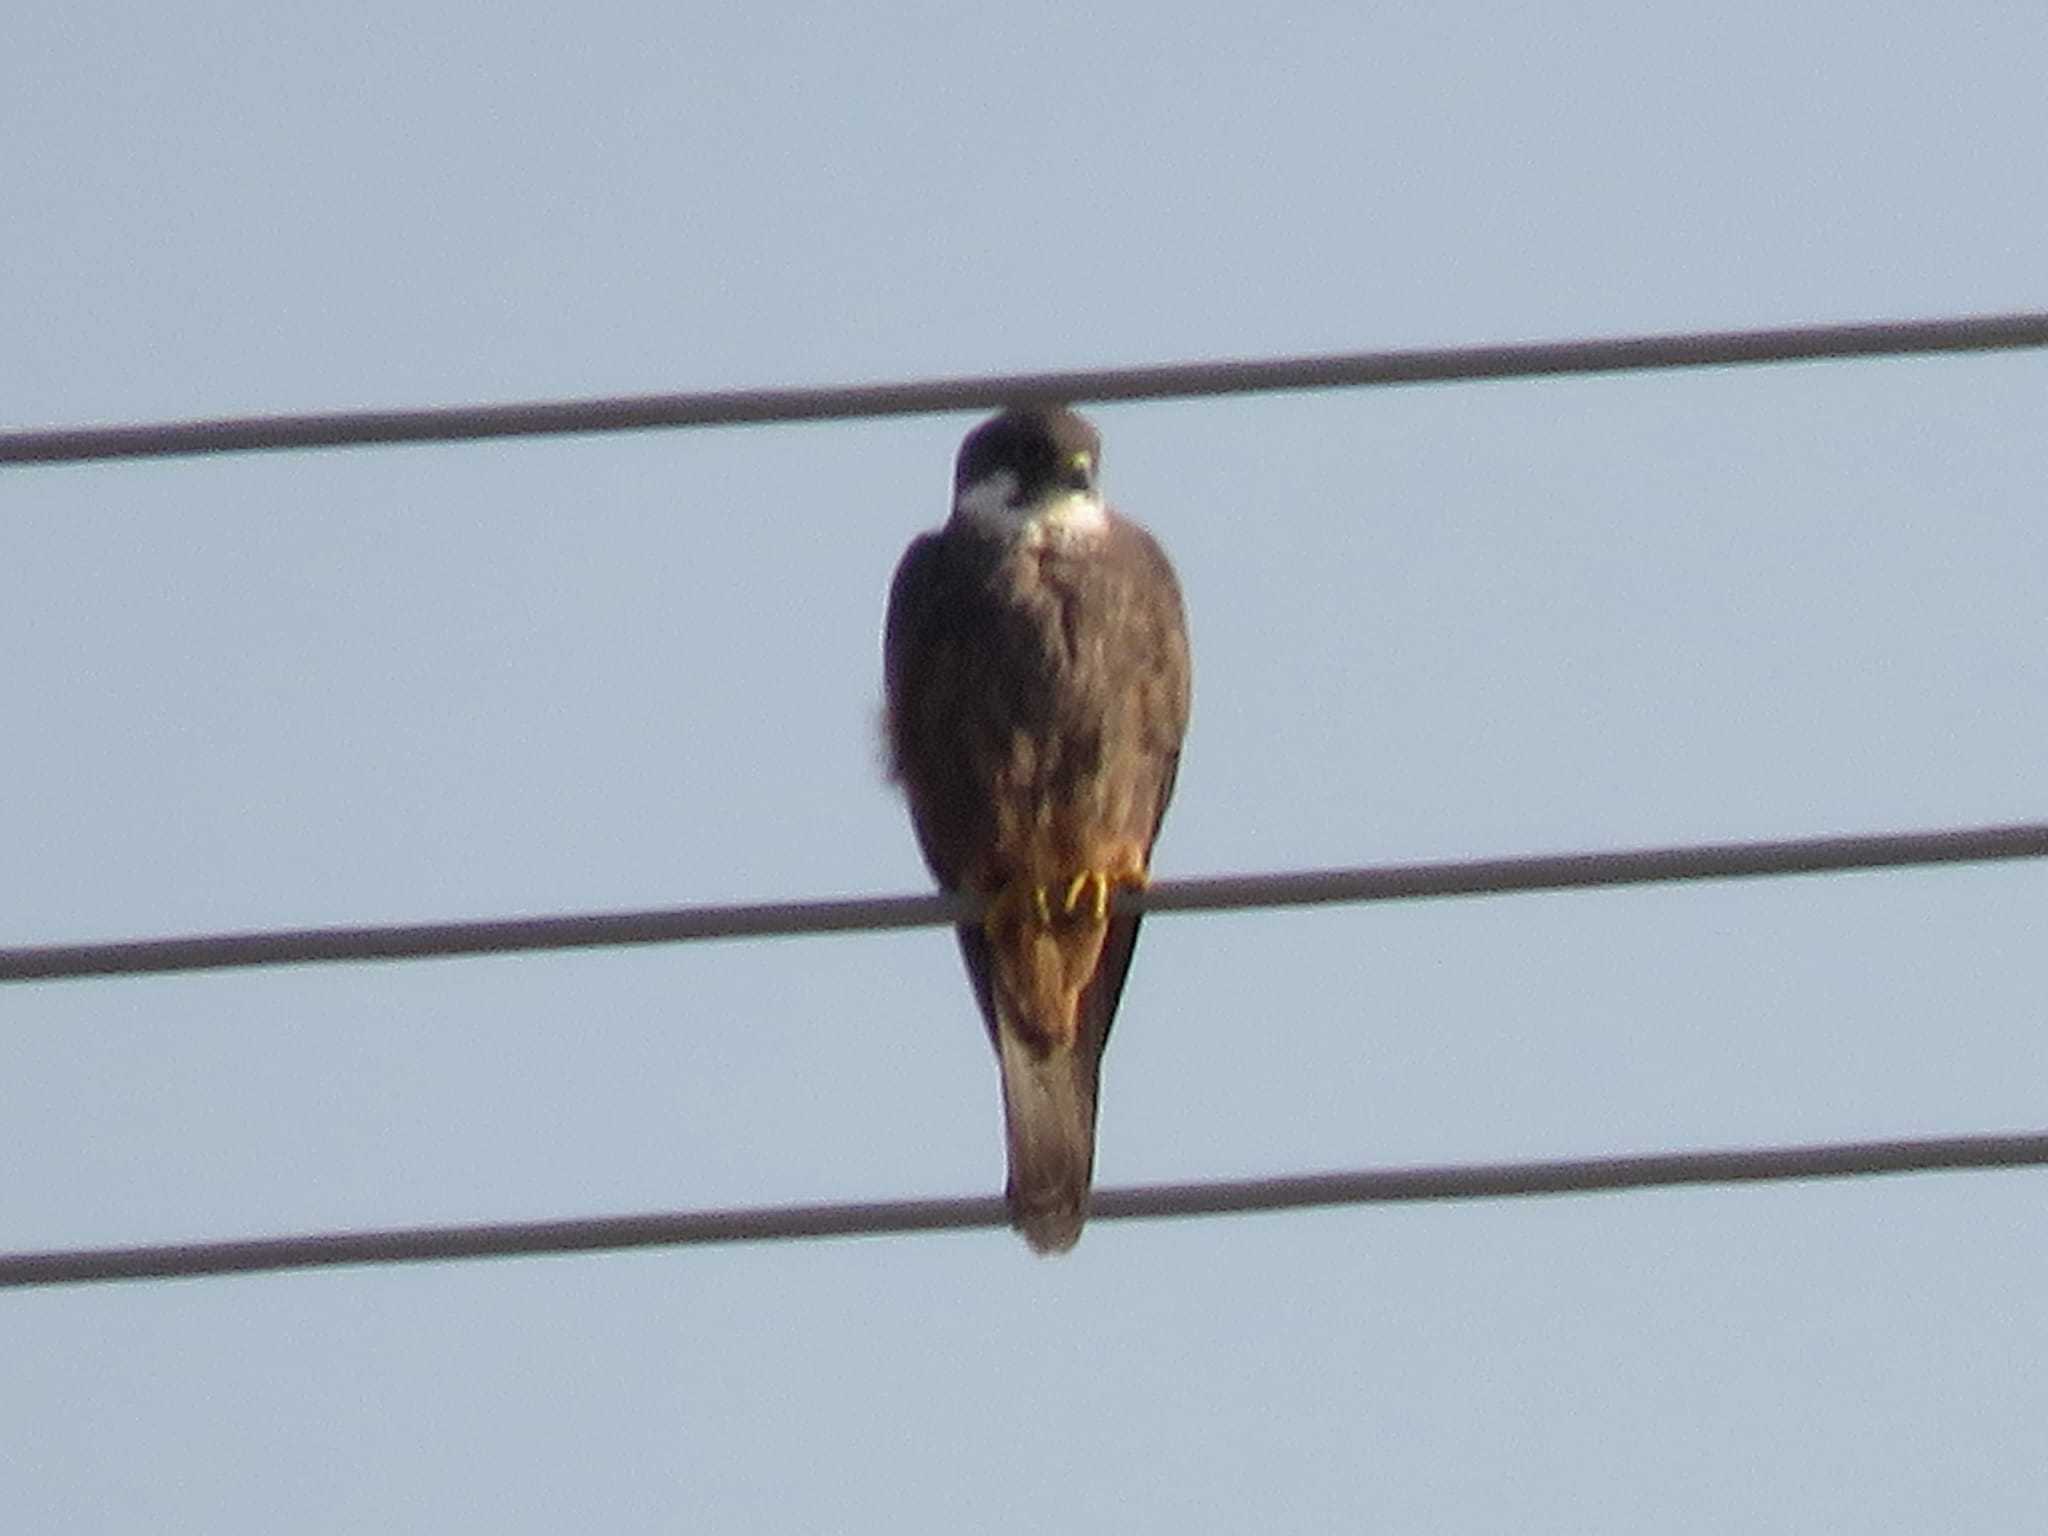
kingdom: Animalia
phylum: Chordata
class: Aves
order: Falconiformes
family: Falconidae
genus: Falco
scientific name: Falco eleonorae
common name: Eleonora's falcon
